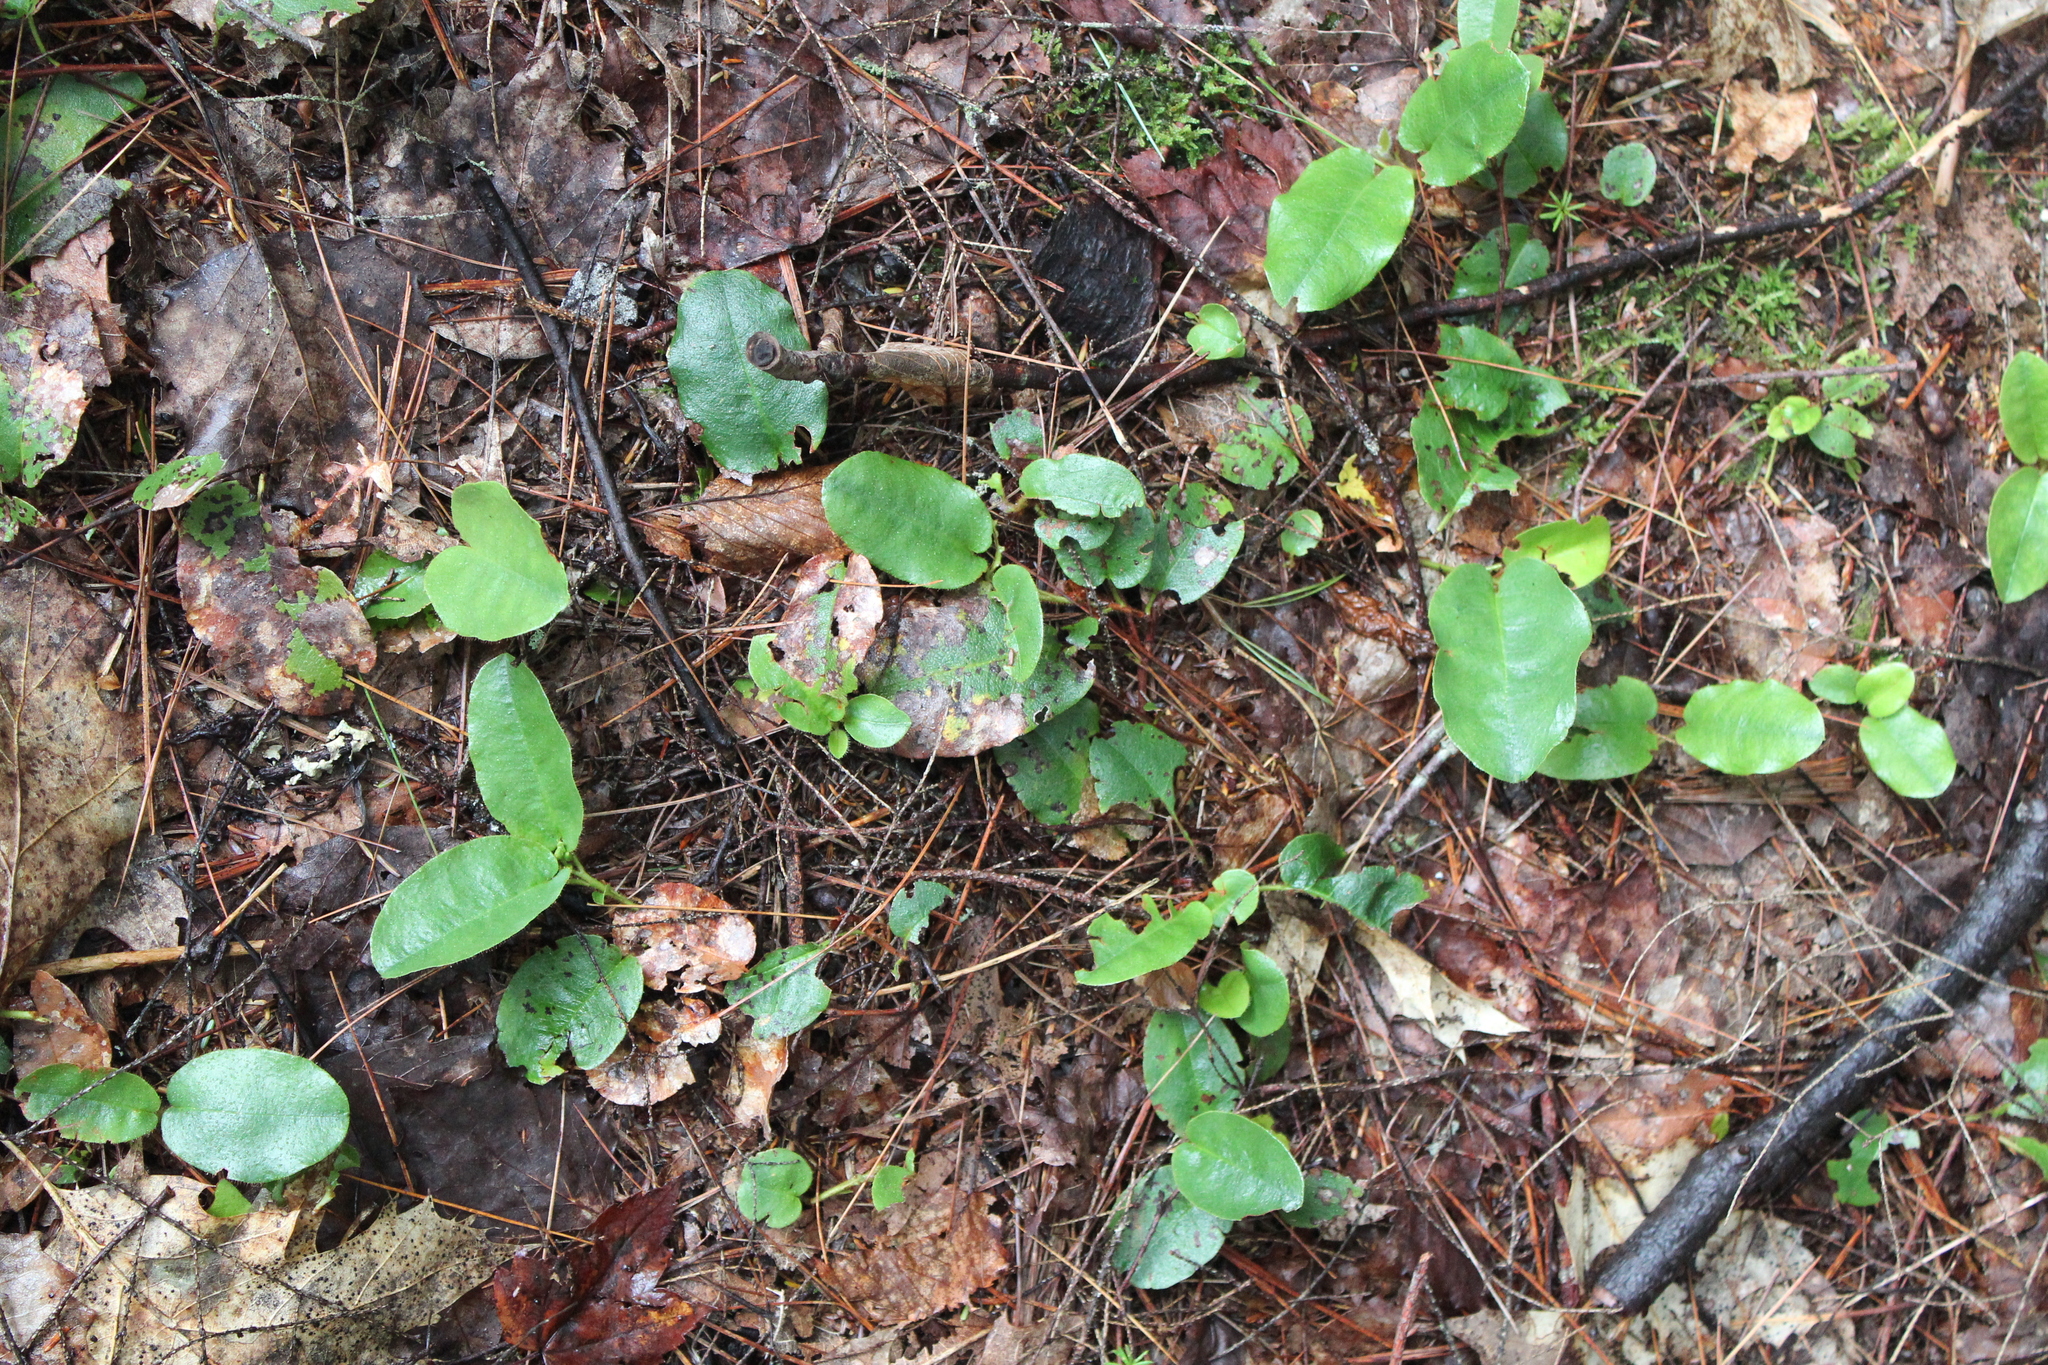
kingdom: Plantae
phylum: Tracheophyta
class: Magnoliopsida
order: Ericales
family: Ericaceae
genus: Epigaea
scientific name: Epigaea repens
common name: Gravelroot
